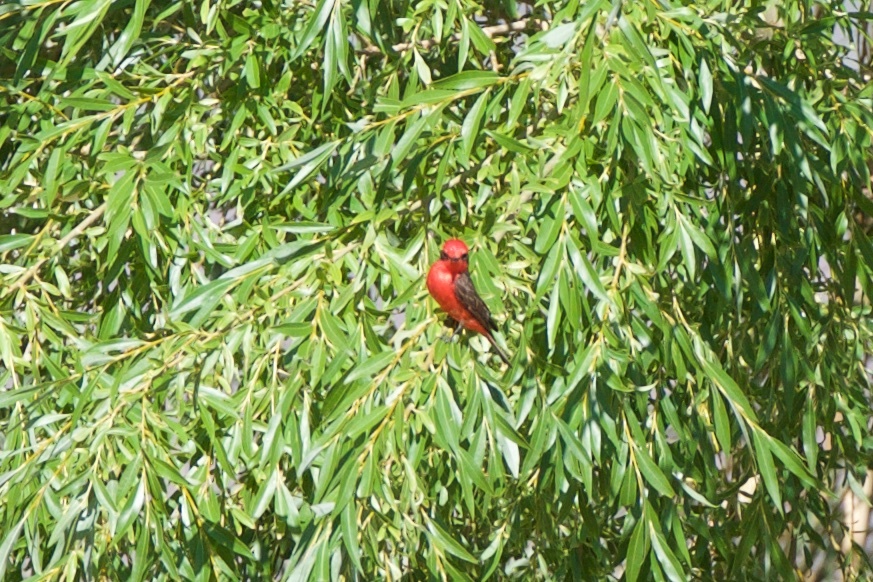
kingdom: Animalia
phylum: Chordata
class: Aves
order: Passeriformes
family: Tyrannidae
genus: Pyrocephalus
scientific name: Pyrocephalus rubinus
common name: Vermilion flycatcher
